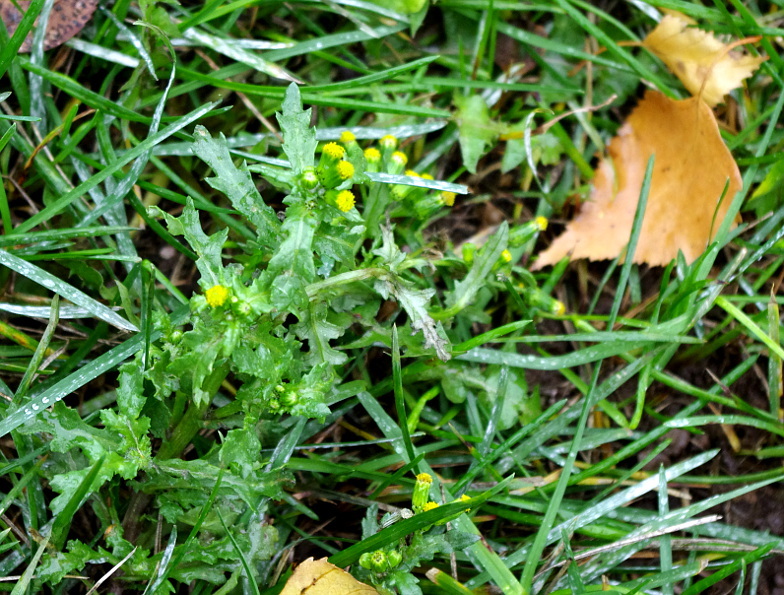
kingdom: Plantae
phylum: Tracheophyta
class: Magnoliopsida
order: Asterales
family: Asteraceae
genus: Senecio
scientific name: Senecio vulgaris
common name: Old-man-in-the-spring
